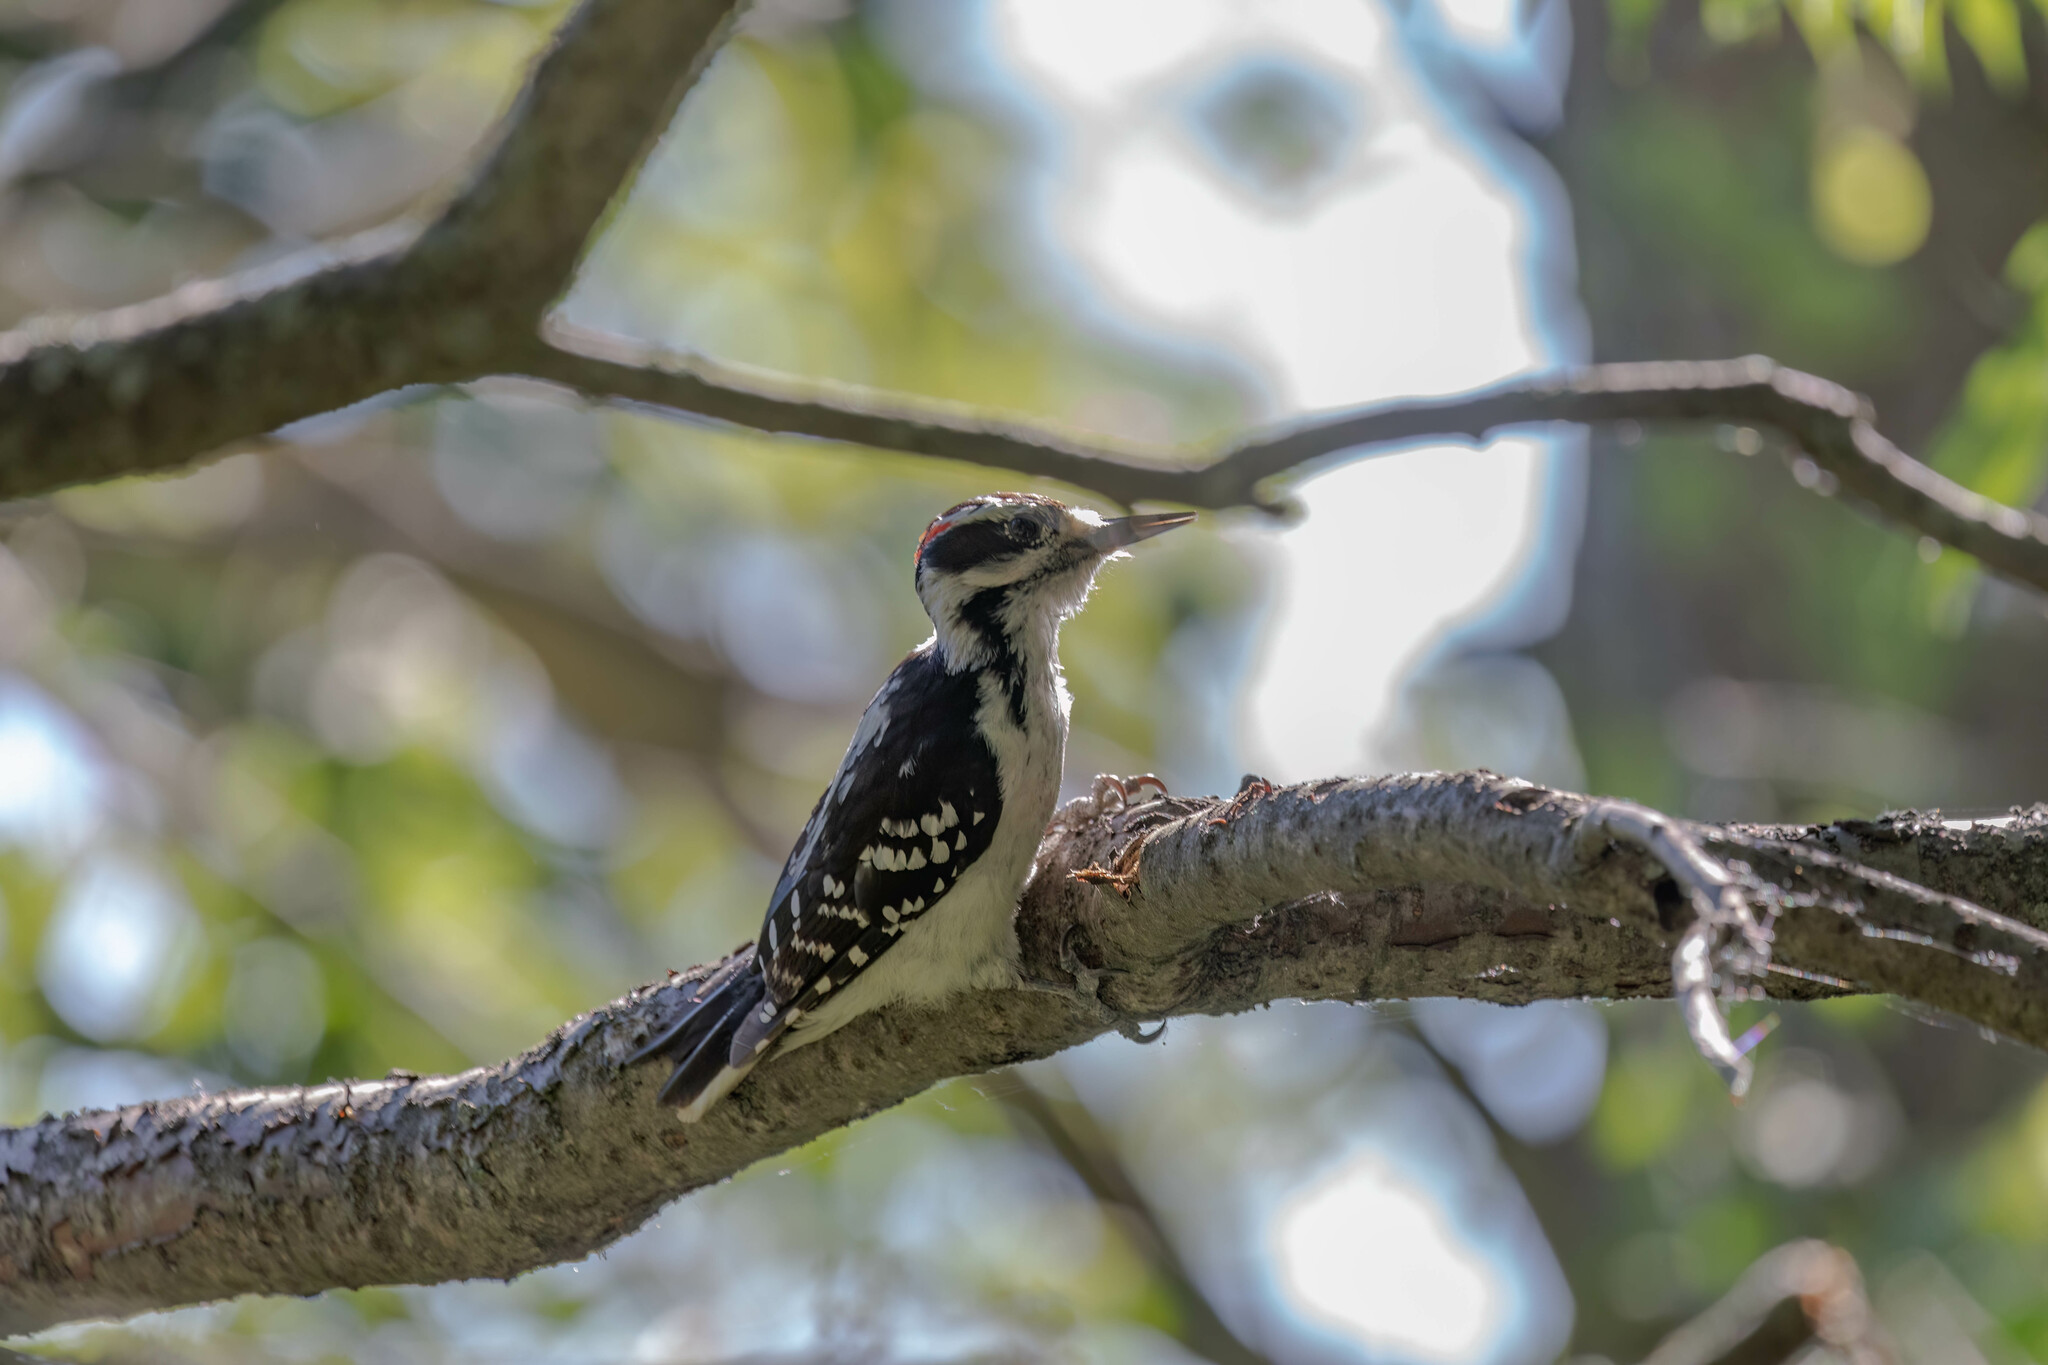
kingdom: Animalia
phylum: Chordata
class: Aves
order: Piciformes
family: Picidae
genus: Leuconotopicus
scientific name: Leuconotopicus villosus
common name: Hairy woodpecker
